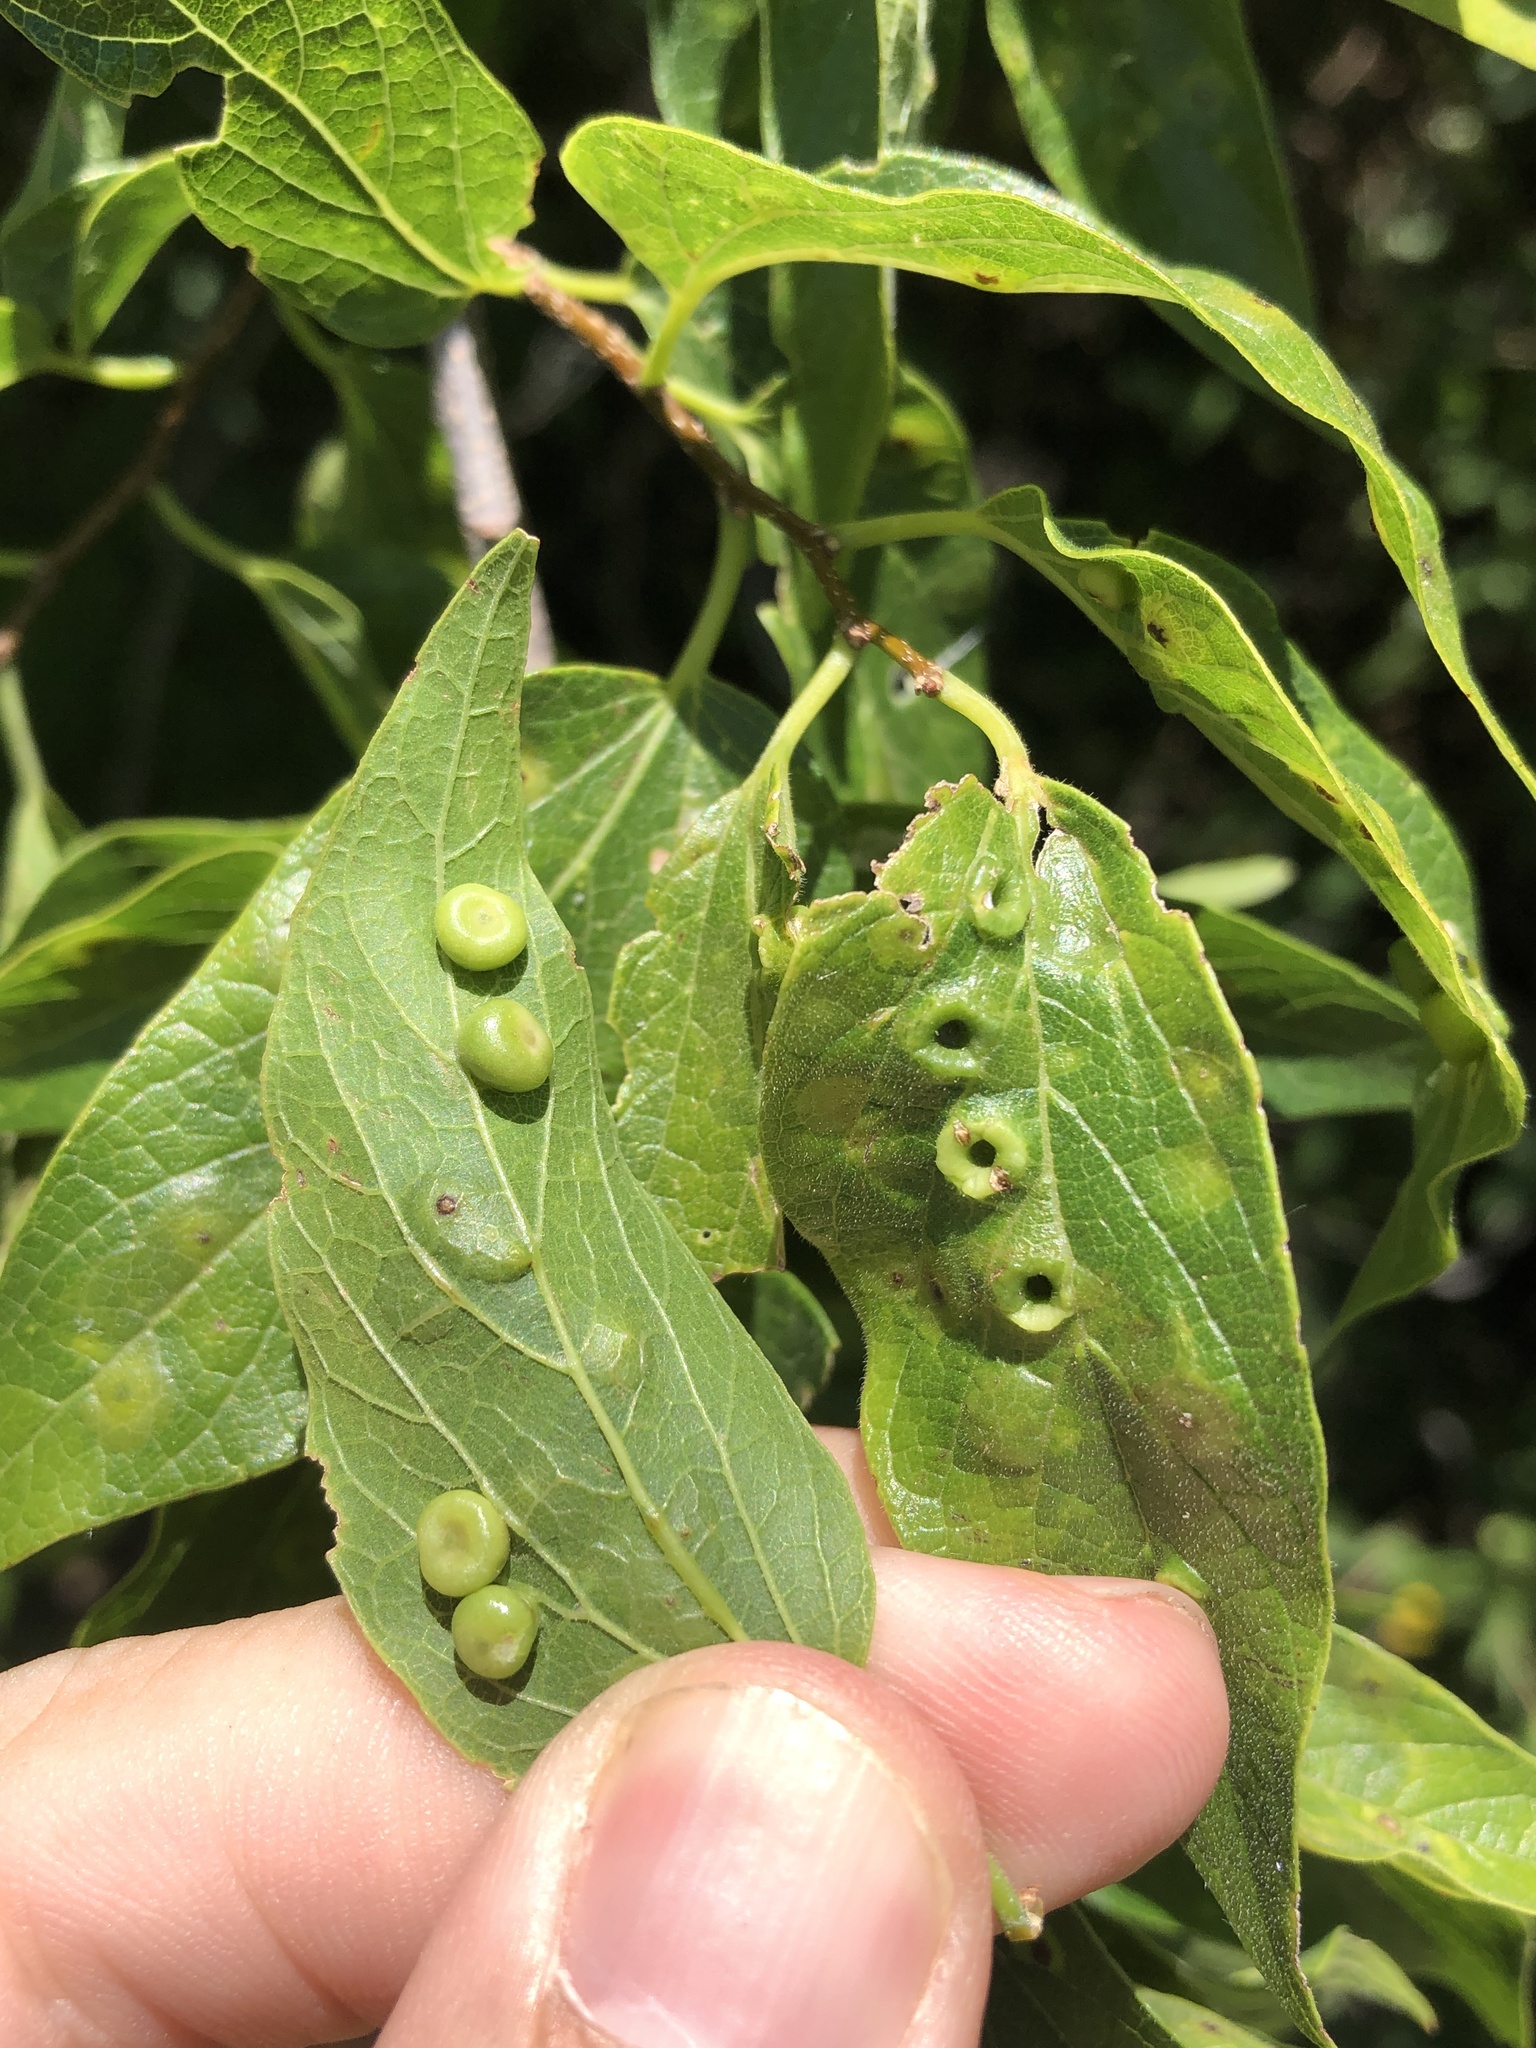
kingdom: Animalia
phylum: Arthropoda
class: Insecta
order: Hemiptera
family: Aphalaridae
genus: Pachypsylla
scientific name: Pachypsylla celtidismamma
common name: Hackberry nipplegall psyllid
